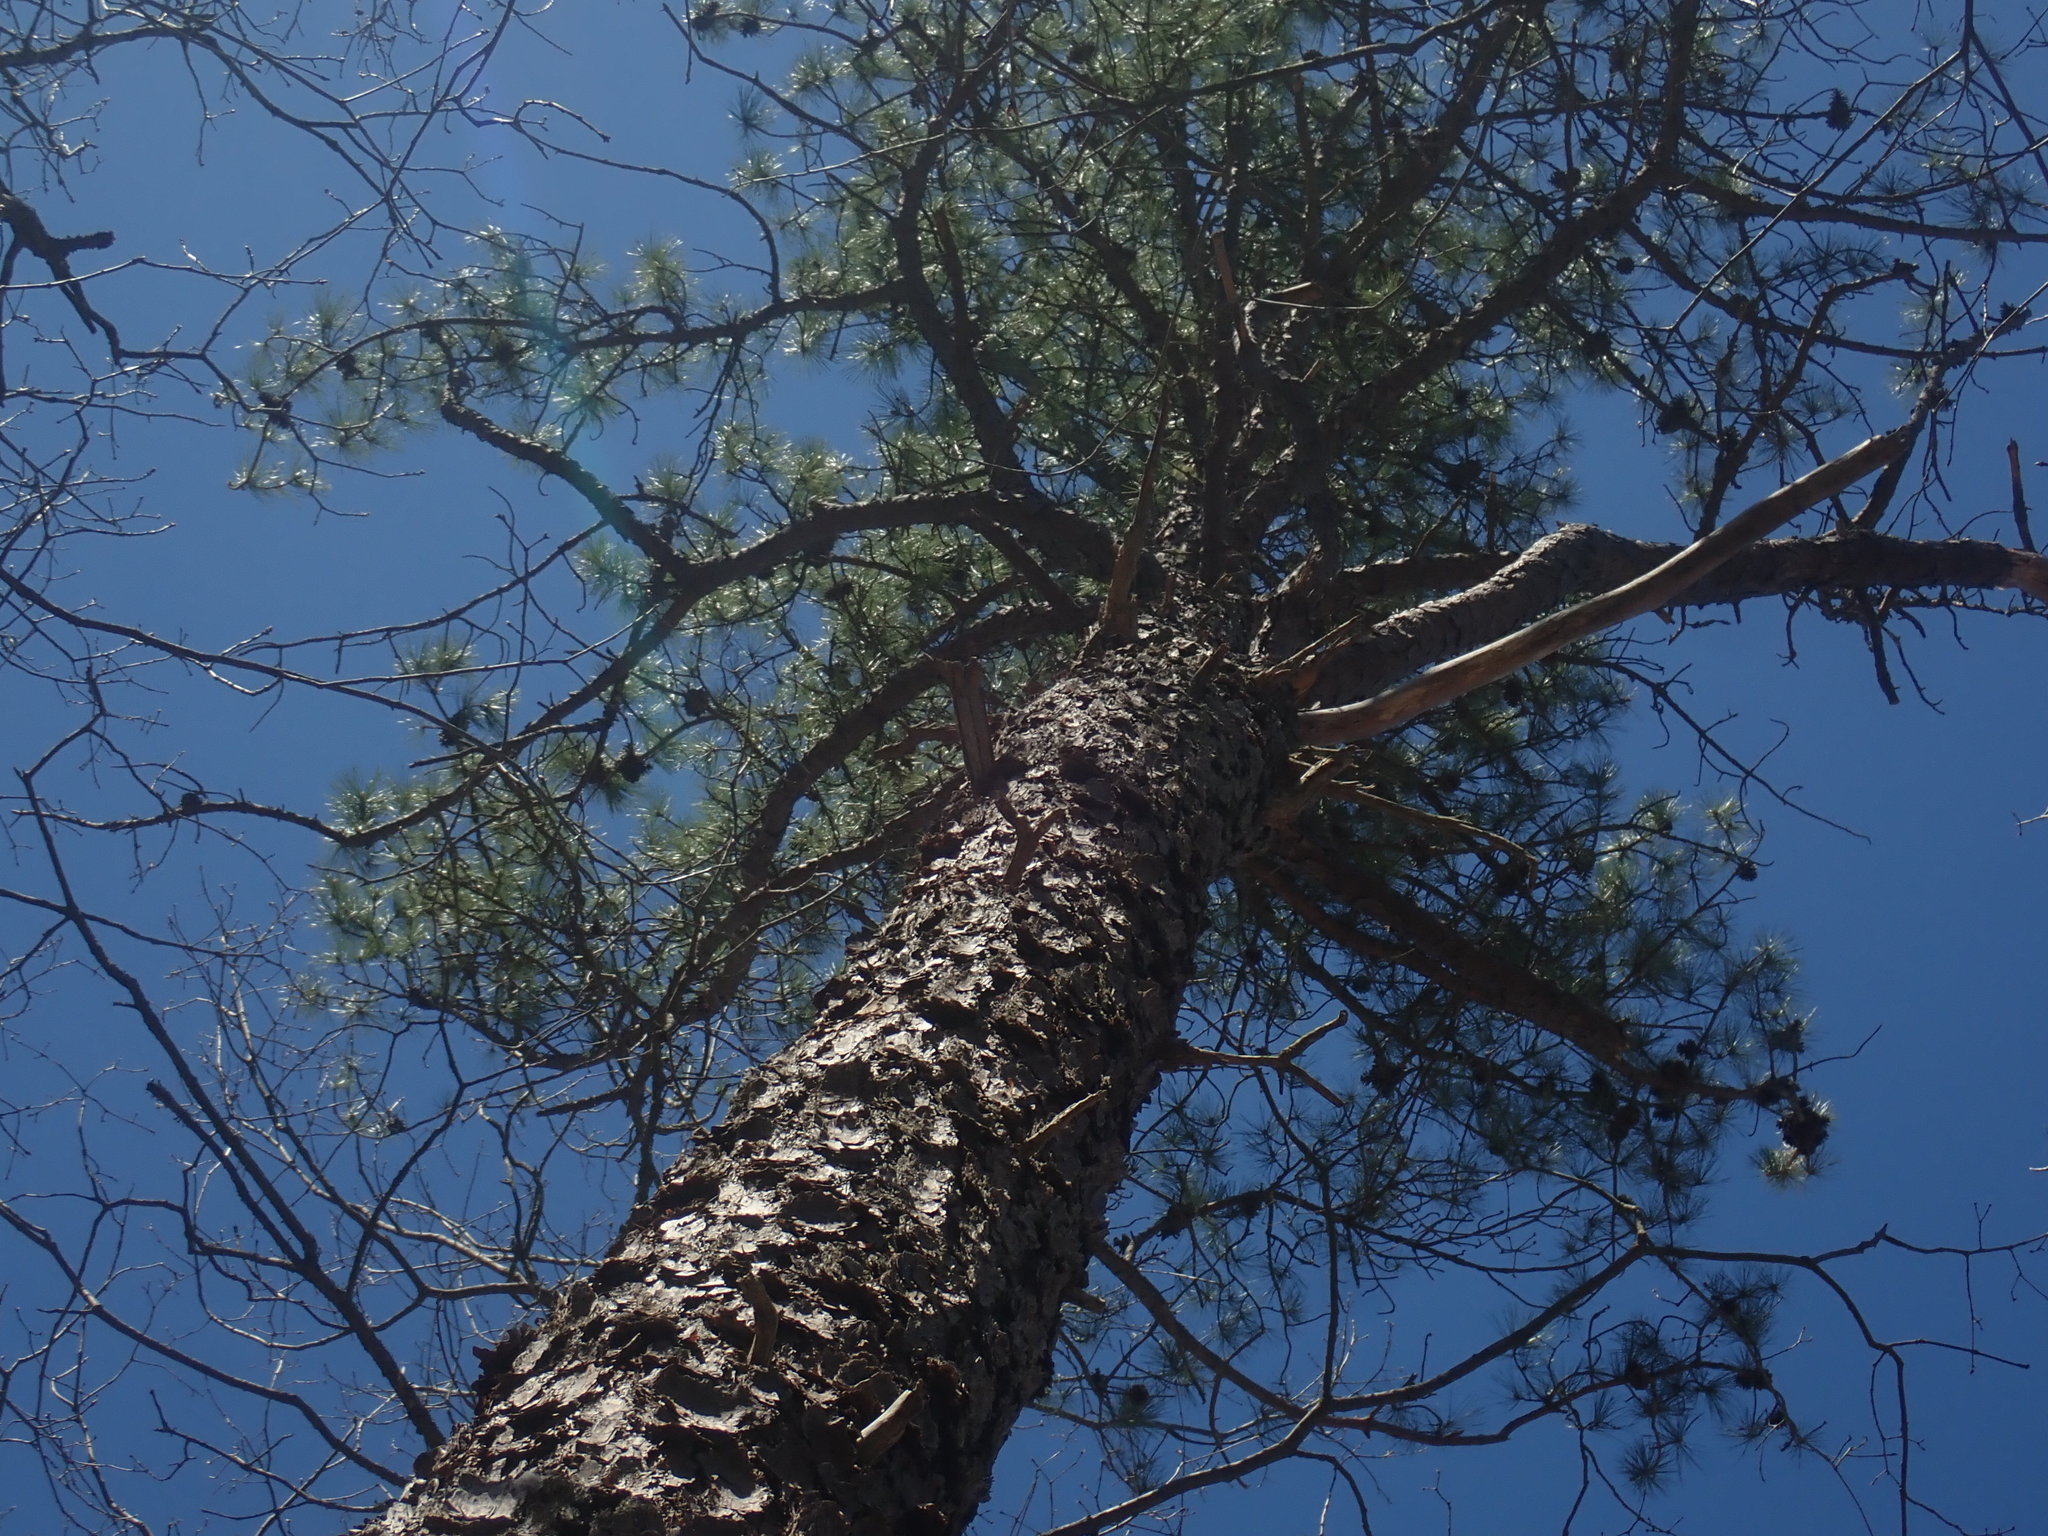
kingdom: Plantae
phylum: Tracheophyta
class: Pinopsida
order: Pinales
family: Pinaceae
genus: Pinus
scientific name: Pinus rigida
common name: Pitch pine
